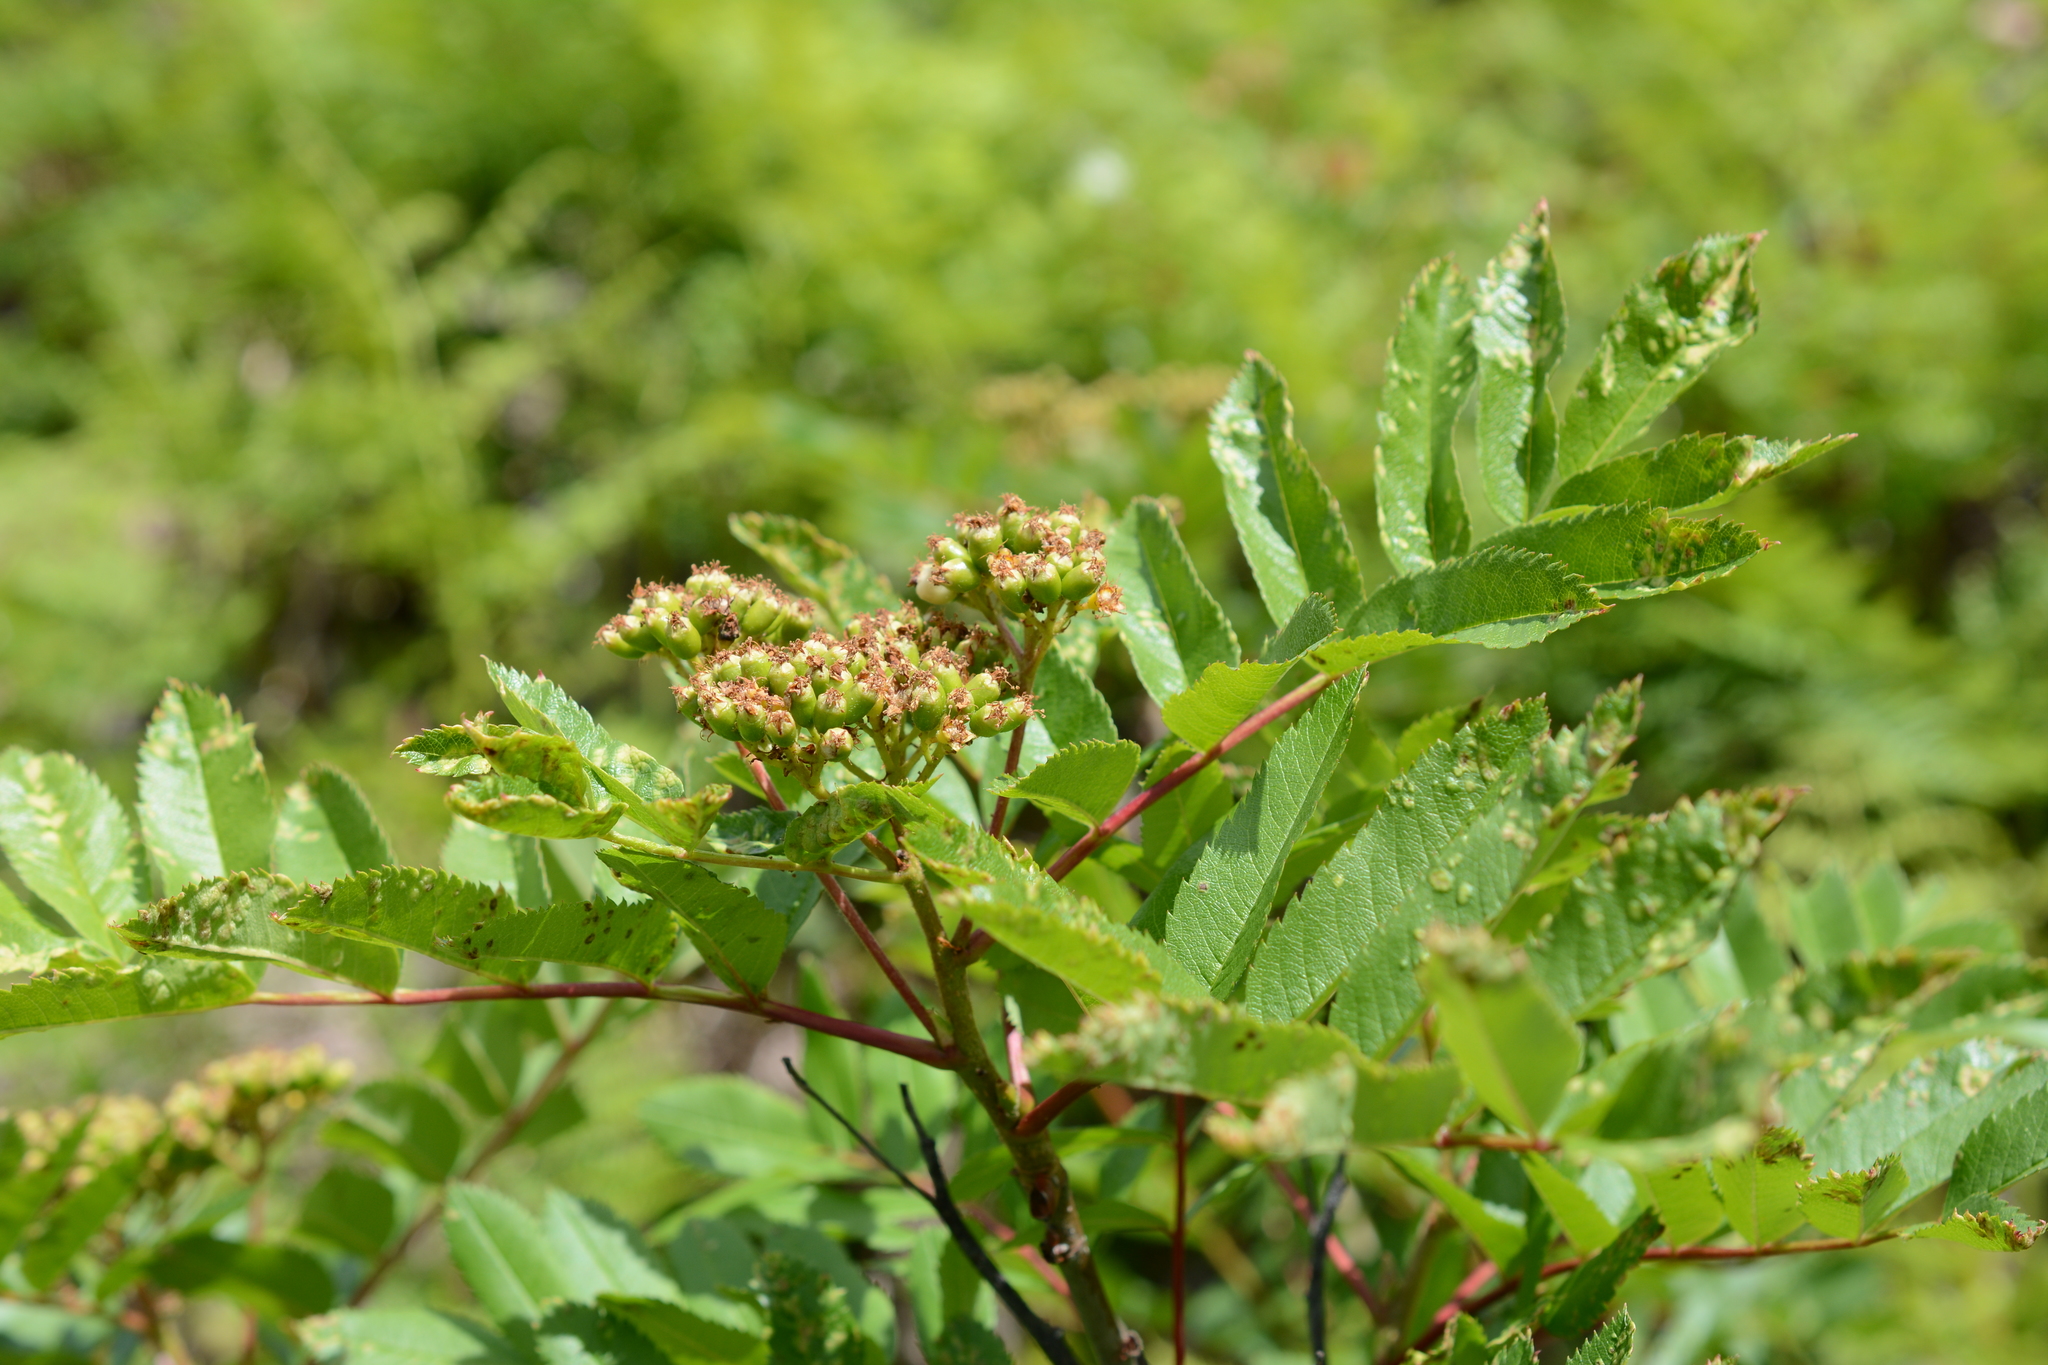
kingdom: Plantae
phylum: Tracheophyta
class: Magnoliopsida
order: Rosales
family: Rosaceae
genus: Sorbus
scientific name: Sorbus sitchensis
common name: Sitka mountain-ash
